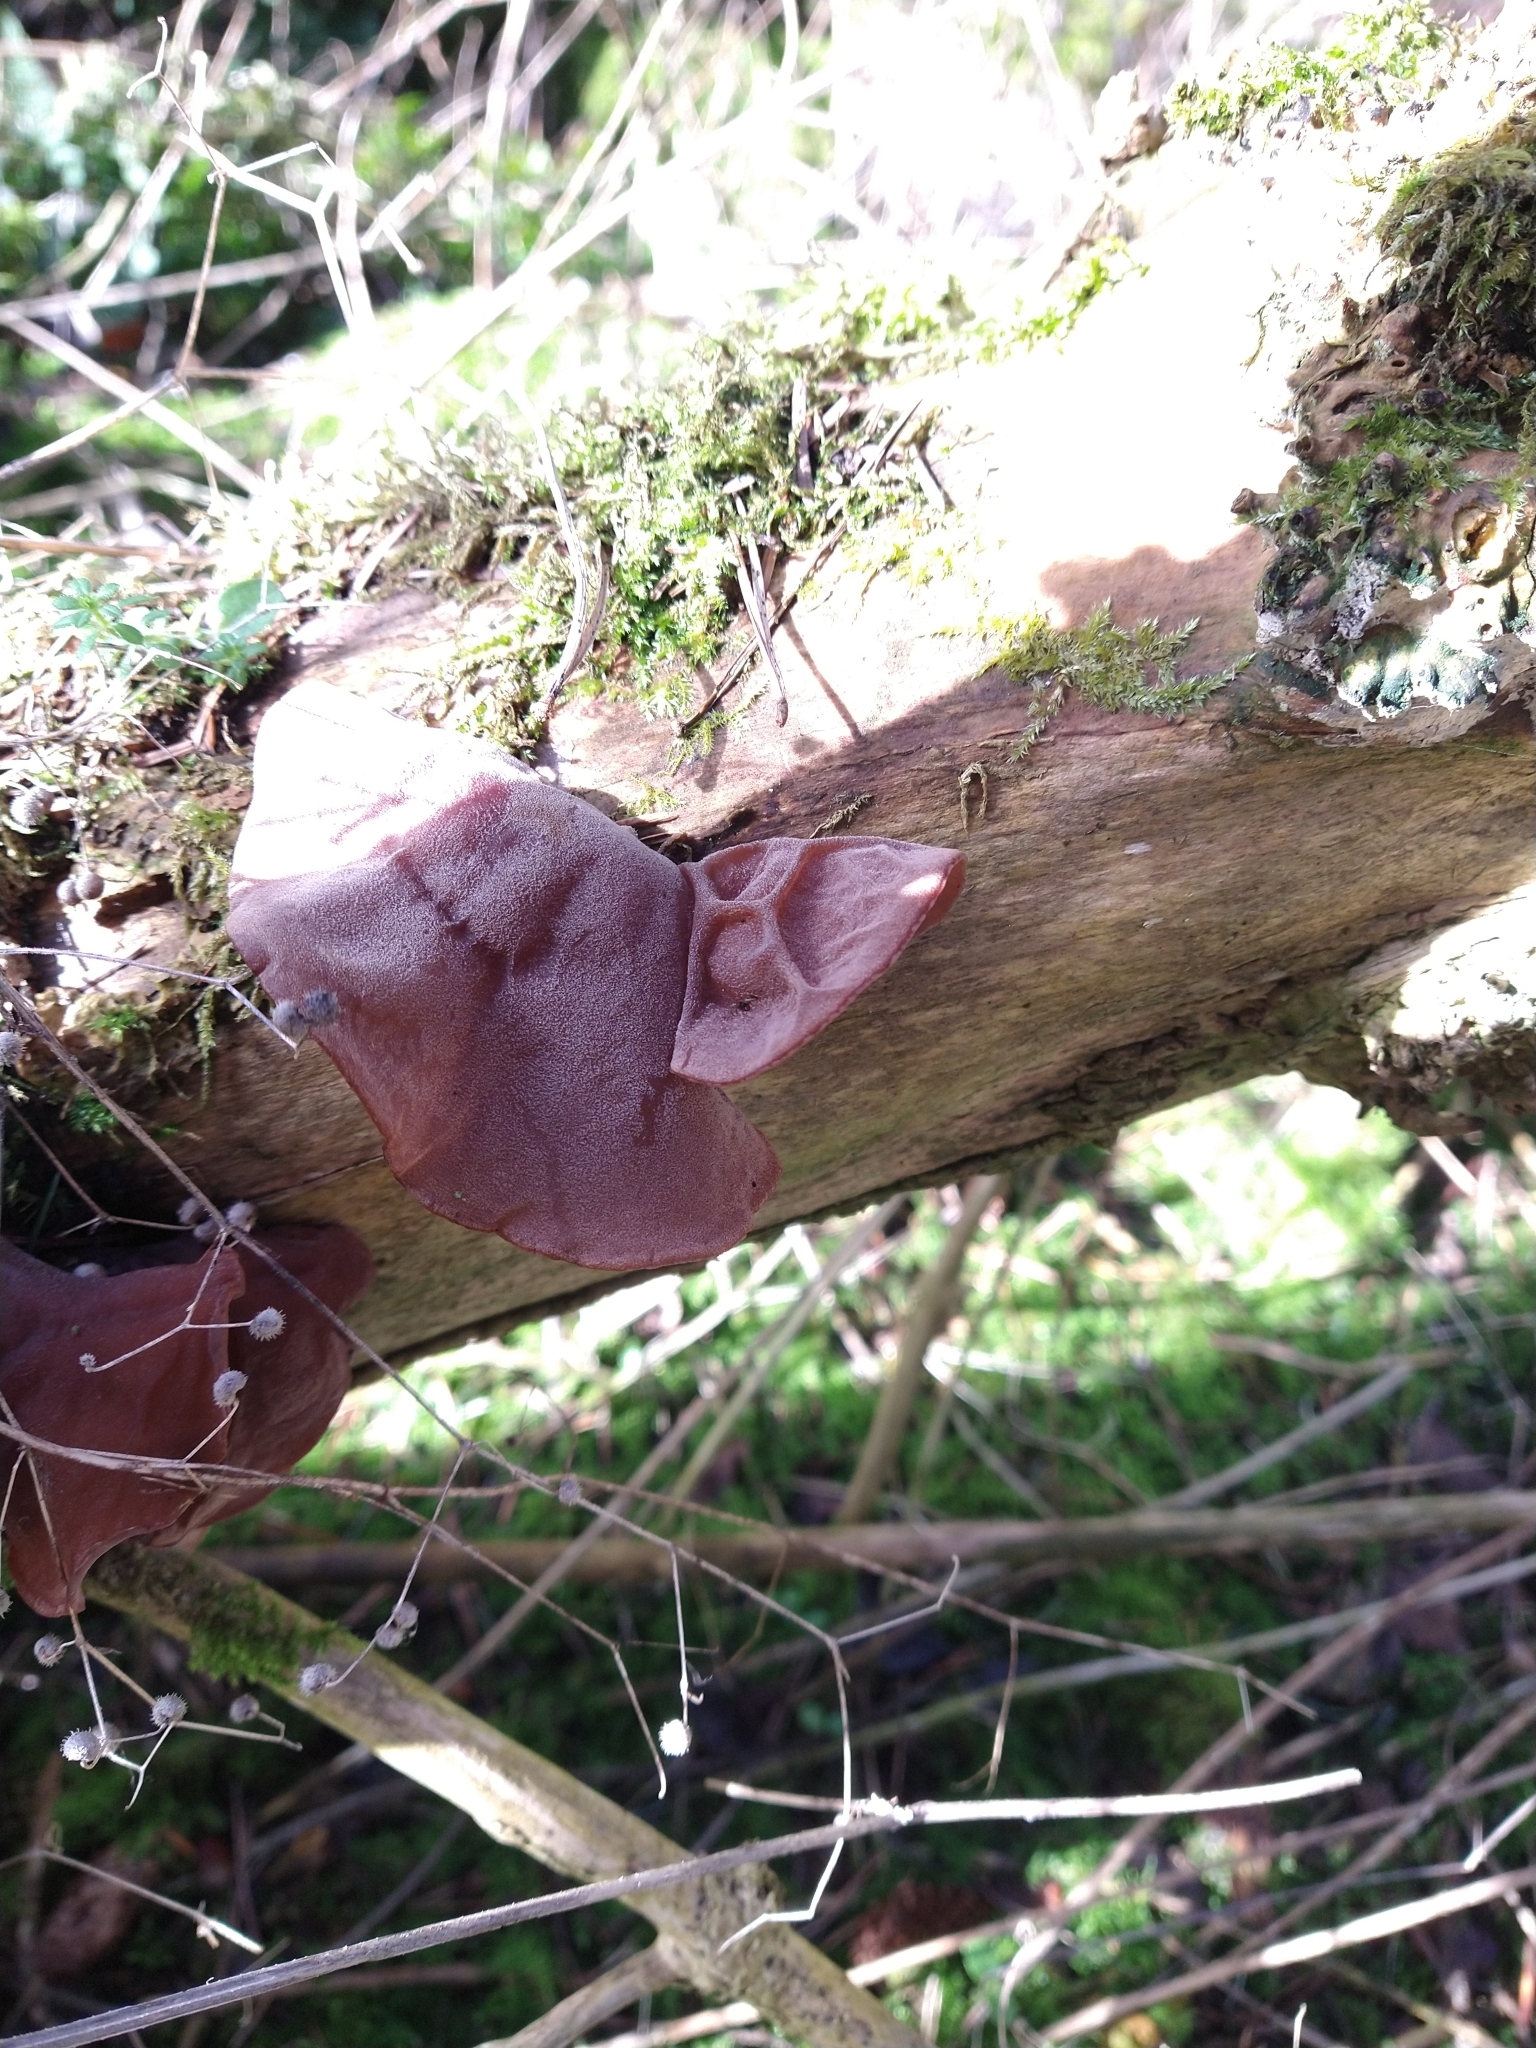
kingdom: Fungi
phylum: Basidiomycota
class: Agaricomycetes
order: Auriculariales
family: Auriculariaceae
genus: Auricularia
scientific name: Auricularia auricula-judae
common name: Jelly ear
